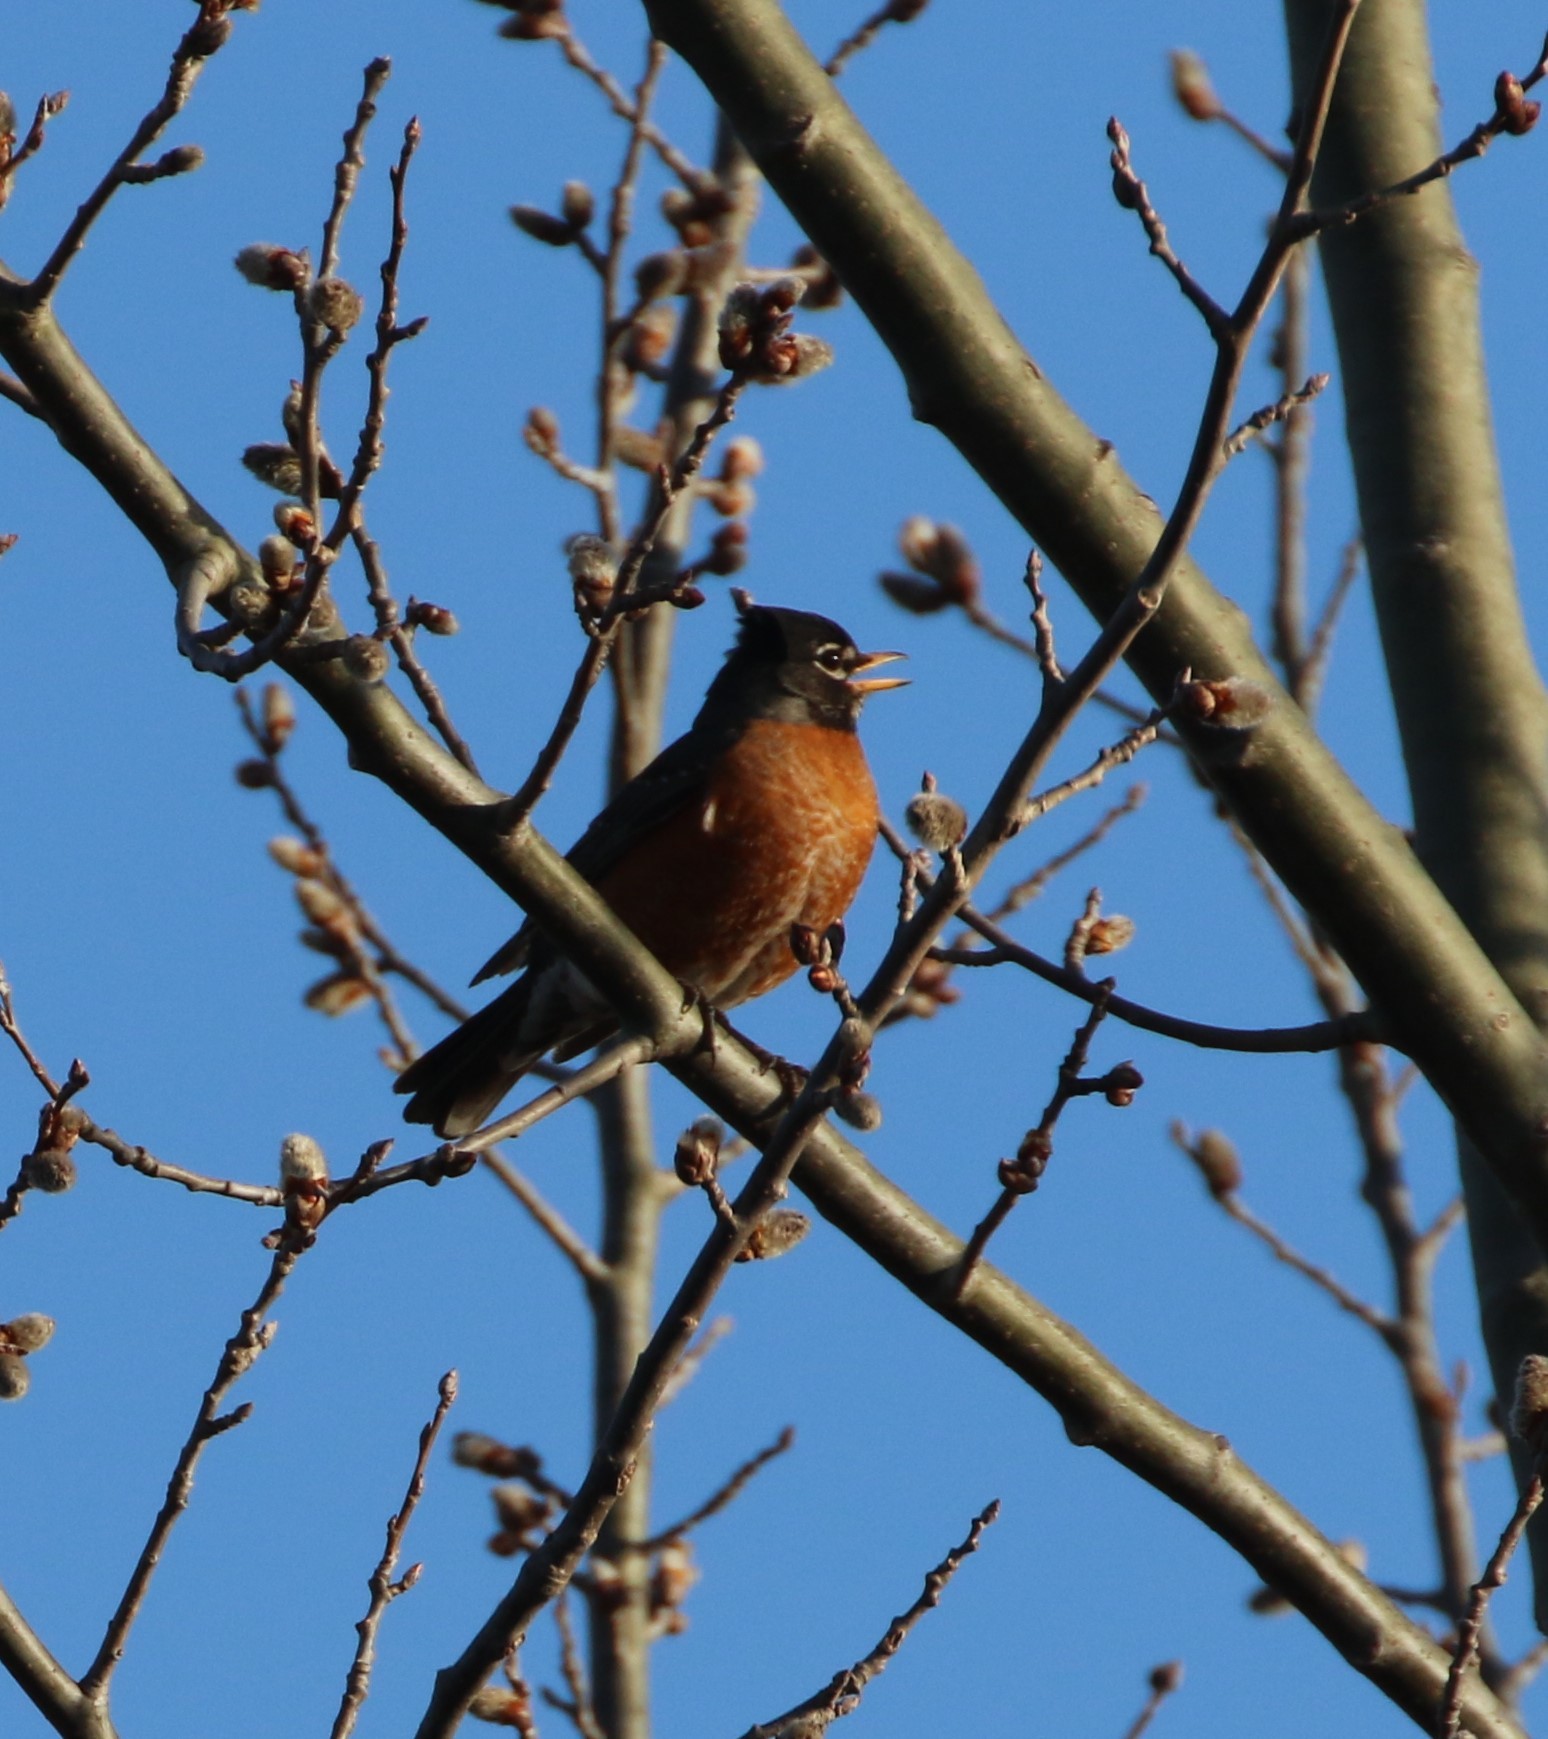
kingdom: Animalia
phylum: Chordata
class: Aves
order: Passeriformes
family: Turdidae
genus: Turdus
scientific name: Turdus migratorius
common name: American robin
